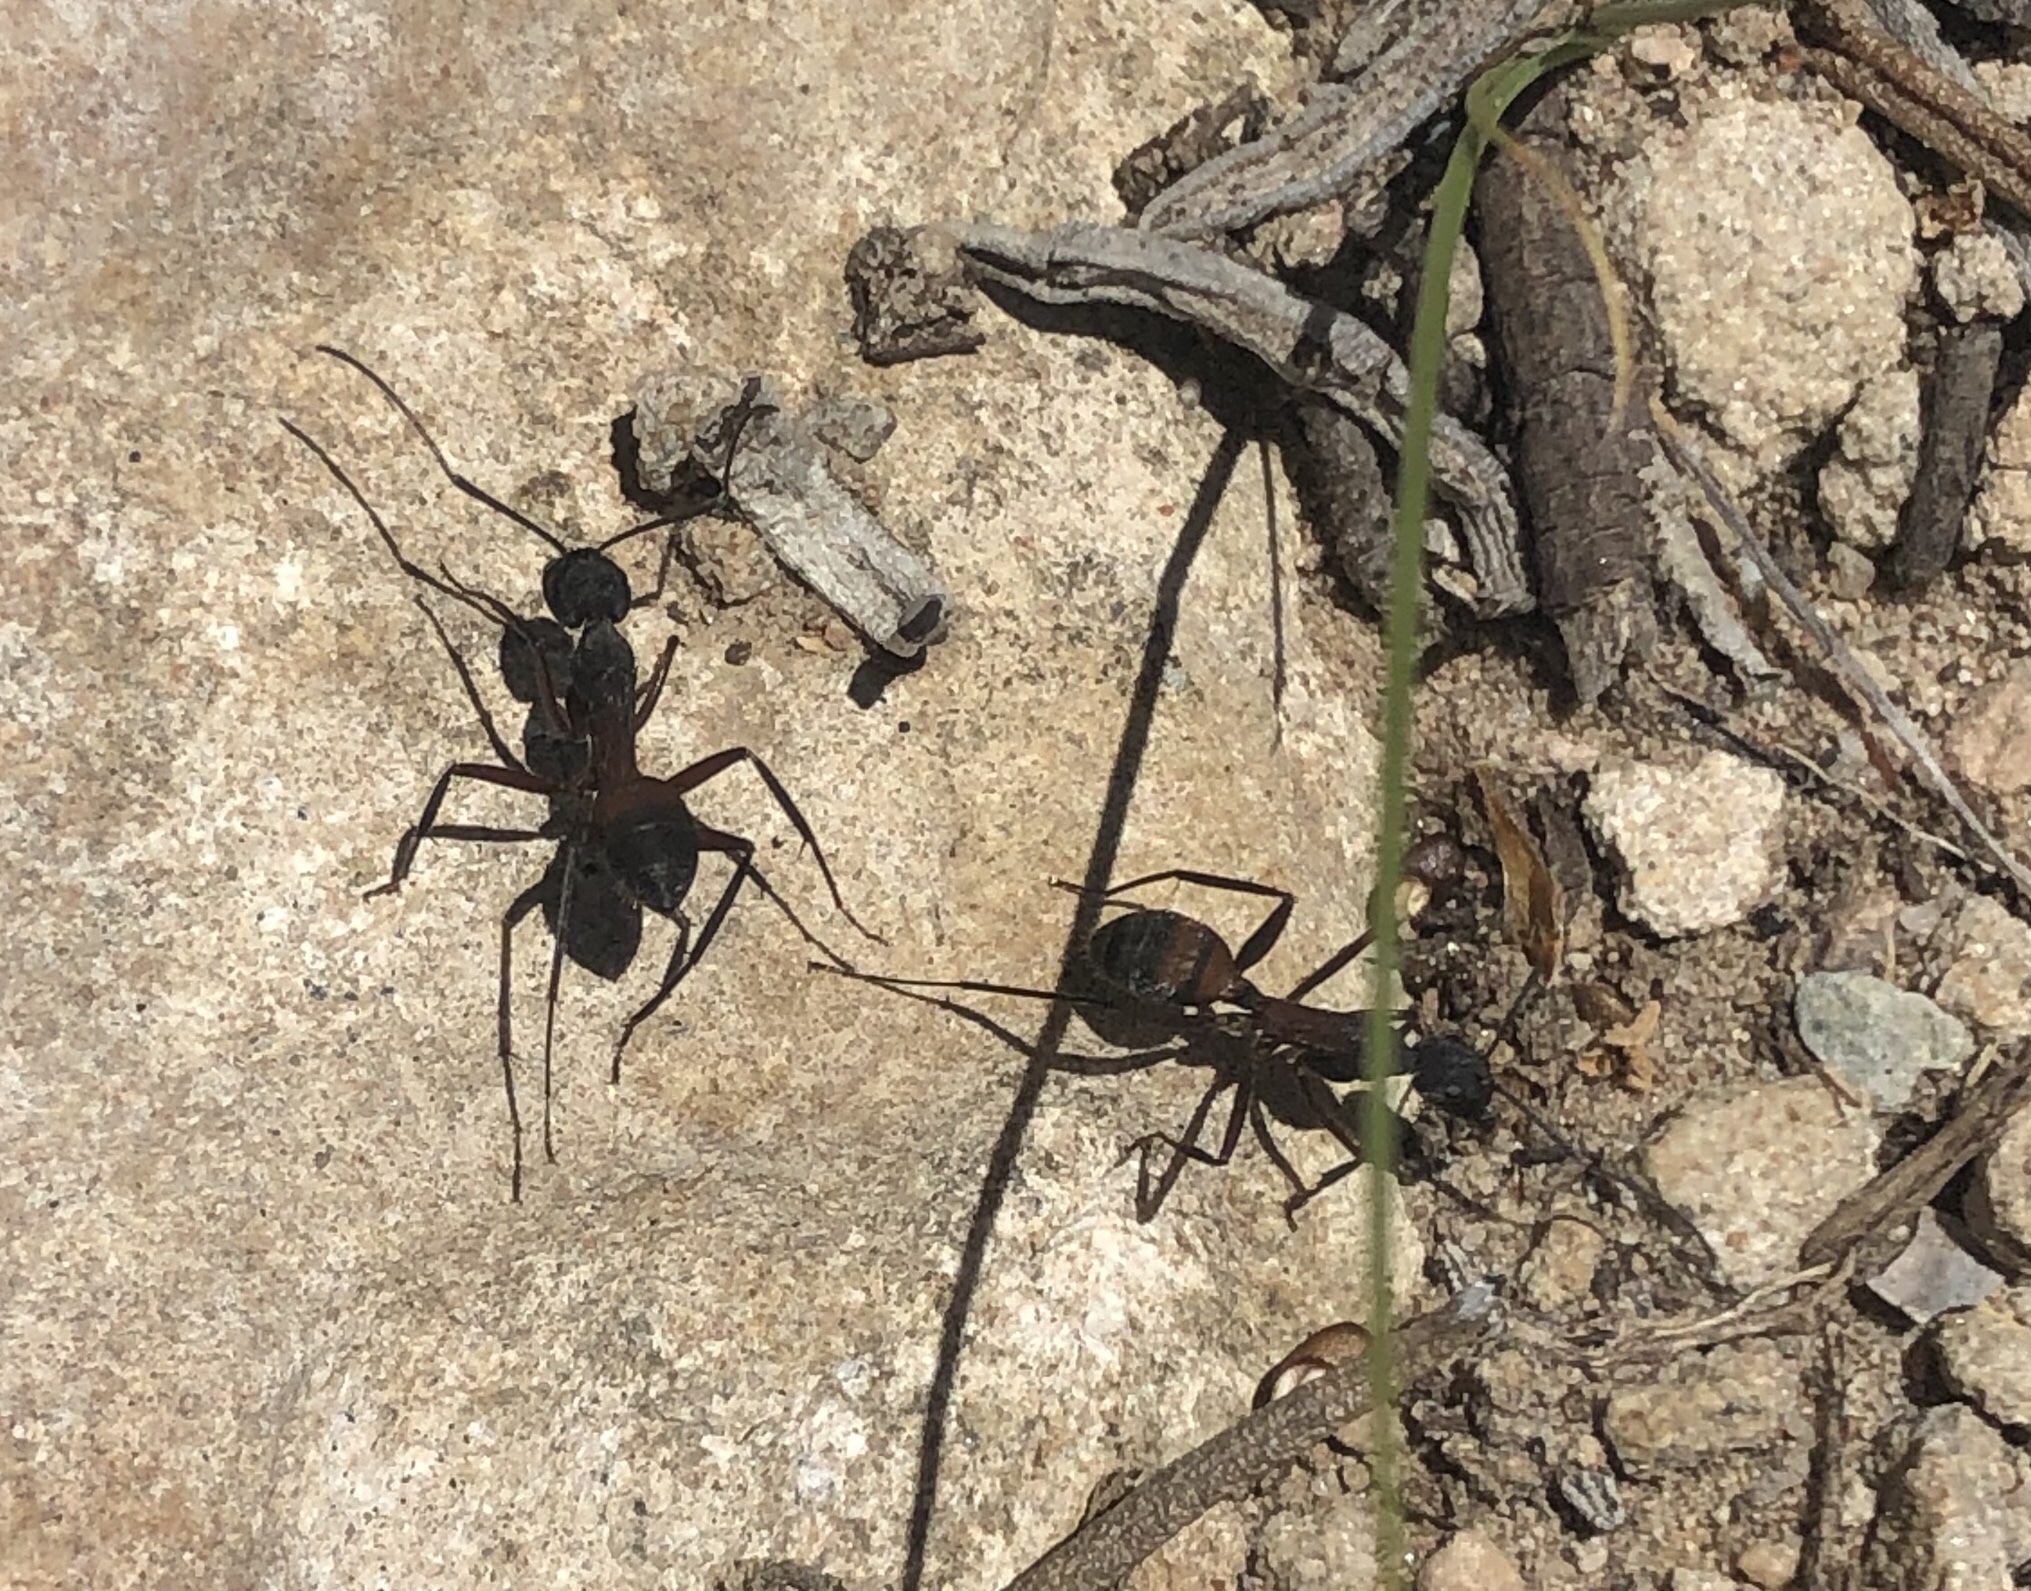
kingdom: Animalia
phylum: Arthropoda
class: Insecta
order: Hymenoptera
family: Formicidae
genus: Camponotus
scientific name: Camponotus cruentatus
